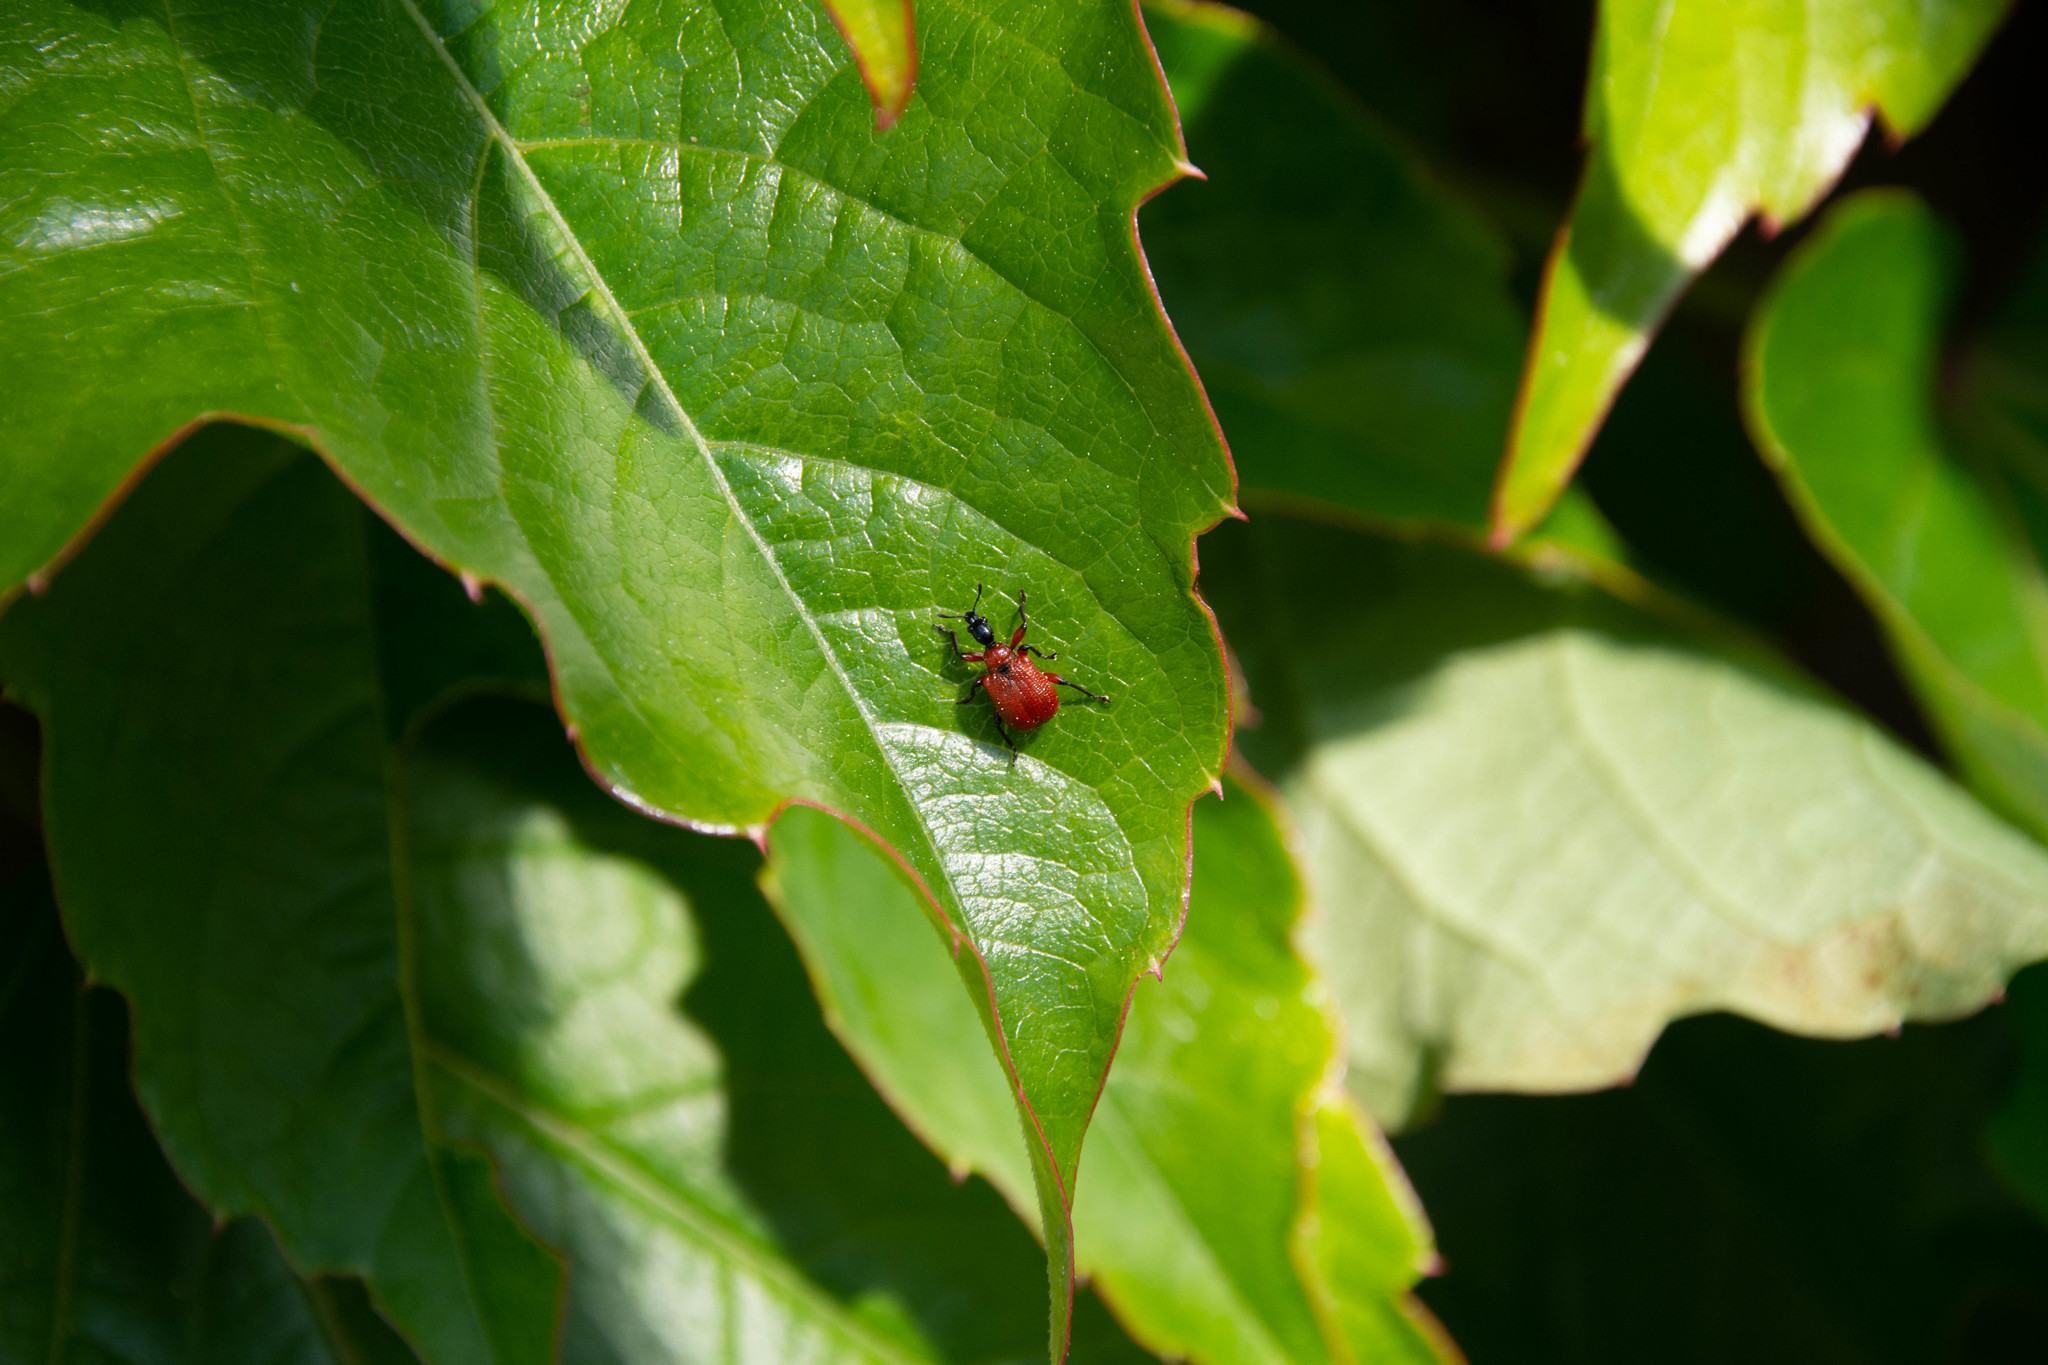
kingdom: Animalia
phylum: Arthropoda
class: Insecta
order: Coleoptera
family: Attelabidae
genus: Apoderus
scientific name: Apoderus coryli
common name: Hazel leaf roller
